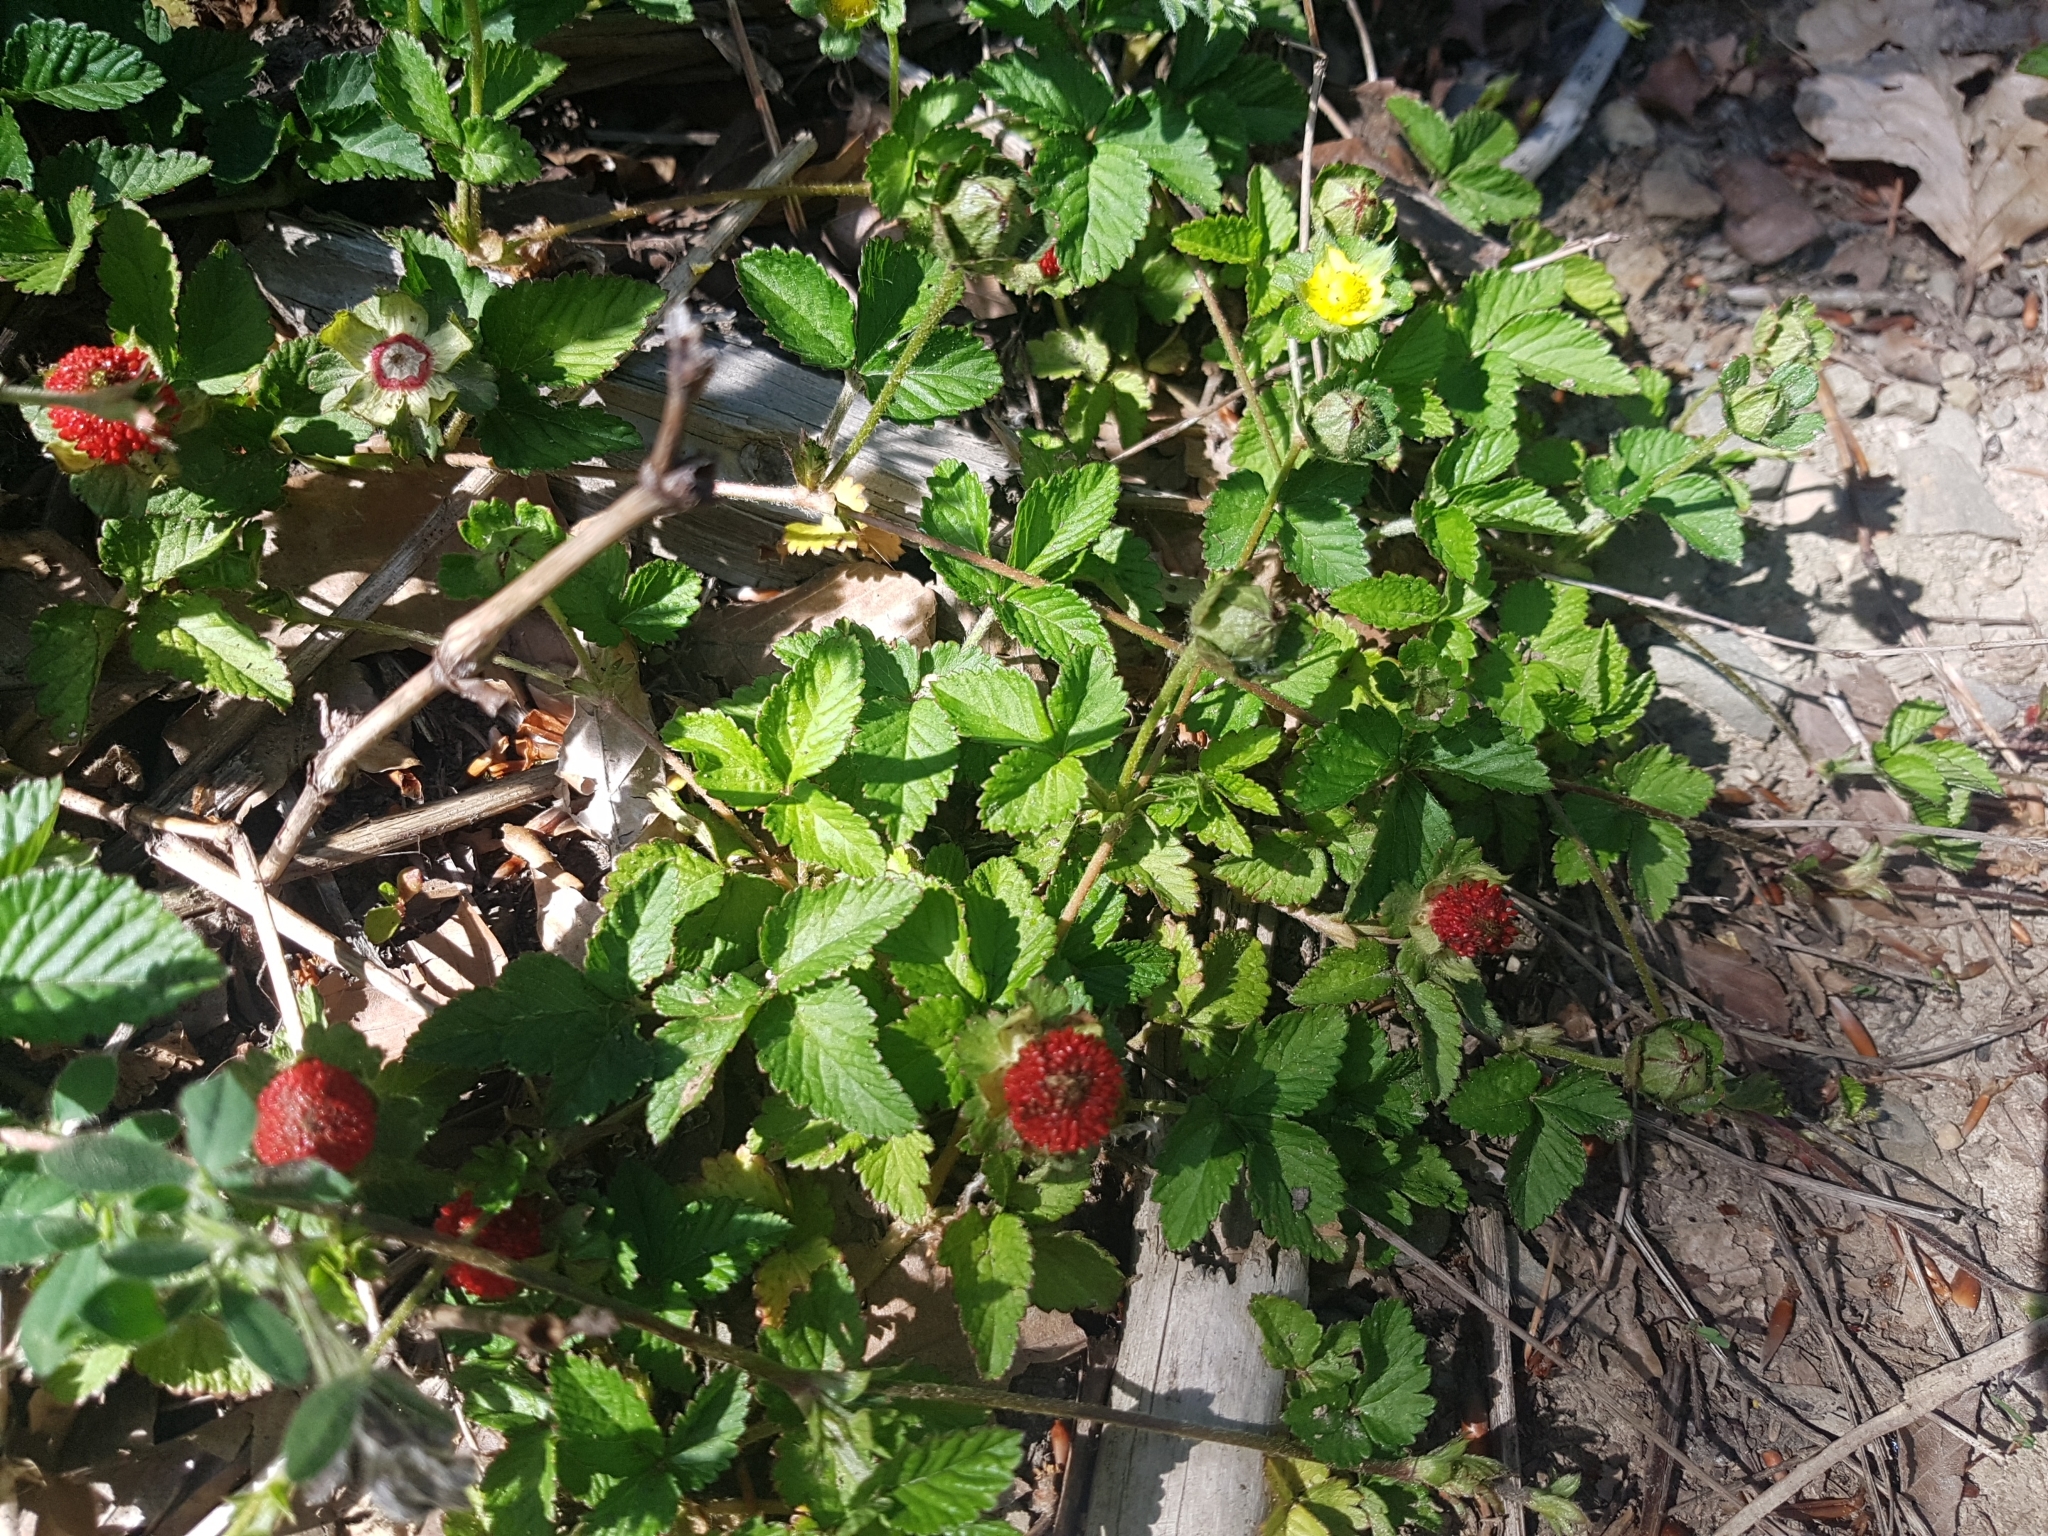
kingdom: Plantae
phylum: Tracheophyta
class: Magnoliopsida
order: Rosales
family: Rosaceae
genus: Potentilla
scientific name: Potentilla indica
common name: Yellow-flowered strawberry
